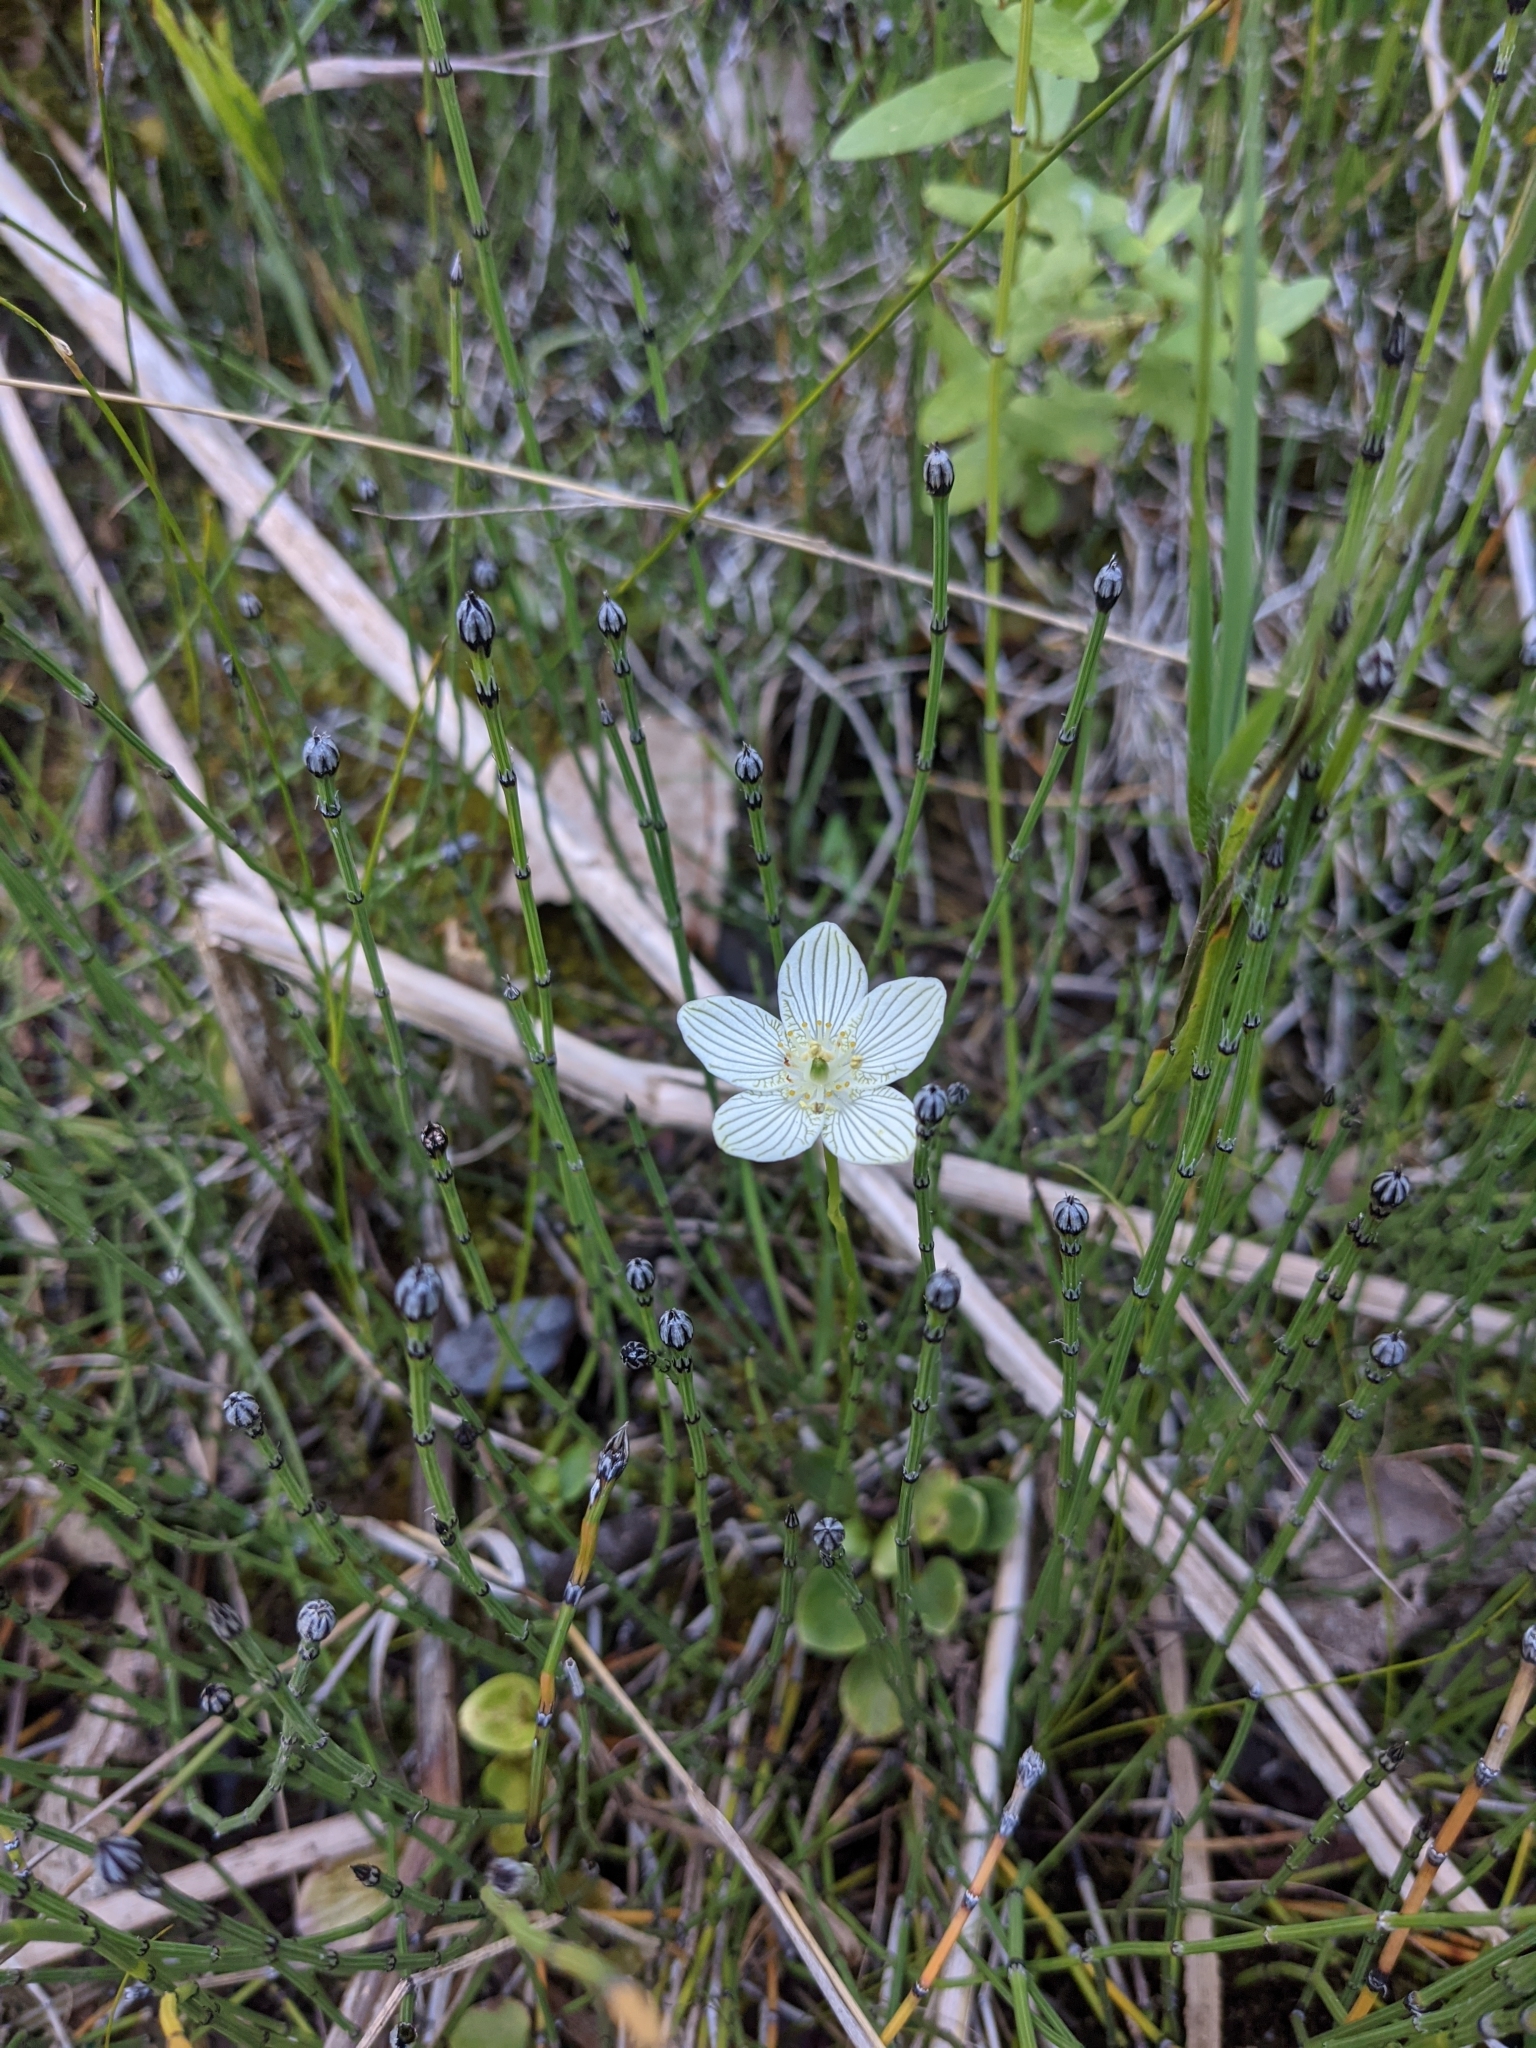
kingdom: Plantae
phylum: Tracheophyta
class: Magnoliopsida
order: Celastrales
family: Parnassiaceae
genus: Parnassia
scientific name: Parnassia glauca
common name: American grass-of-parnassus
